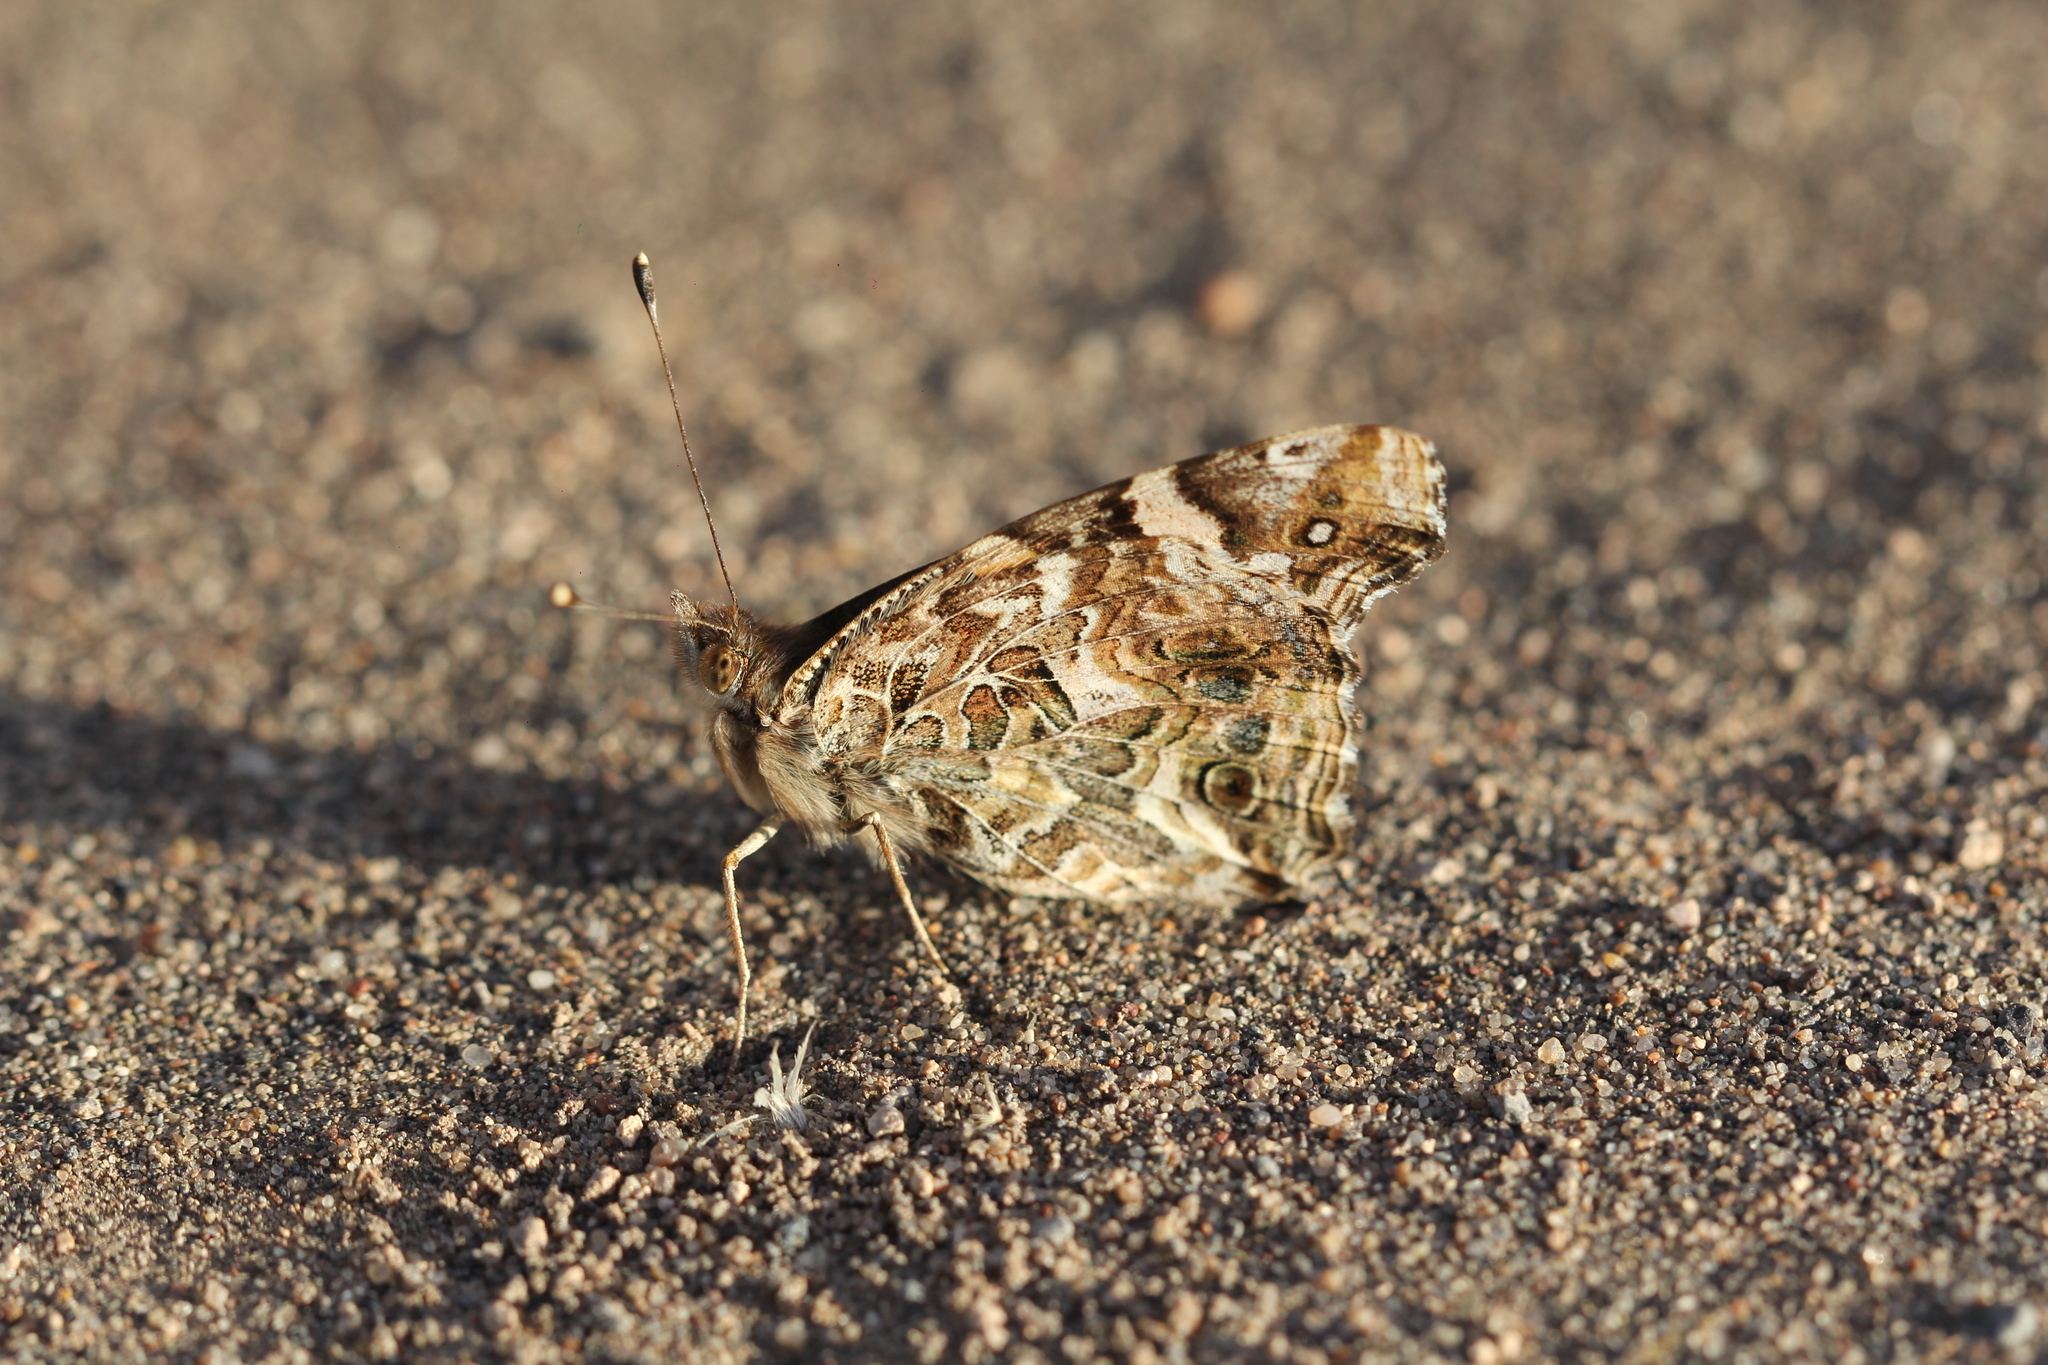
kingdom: Animalia
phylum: Arthropoda
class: Insecta
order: Lepidoptera
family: Nymphalidae
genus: Vanessa
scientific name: Vanessa carye
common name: Subtropical lady
